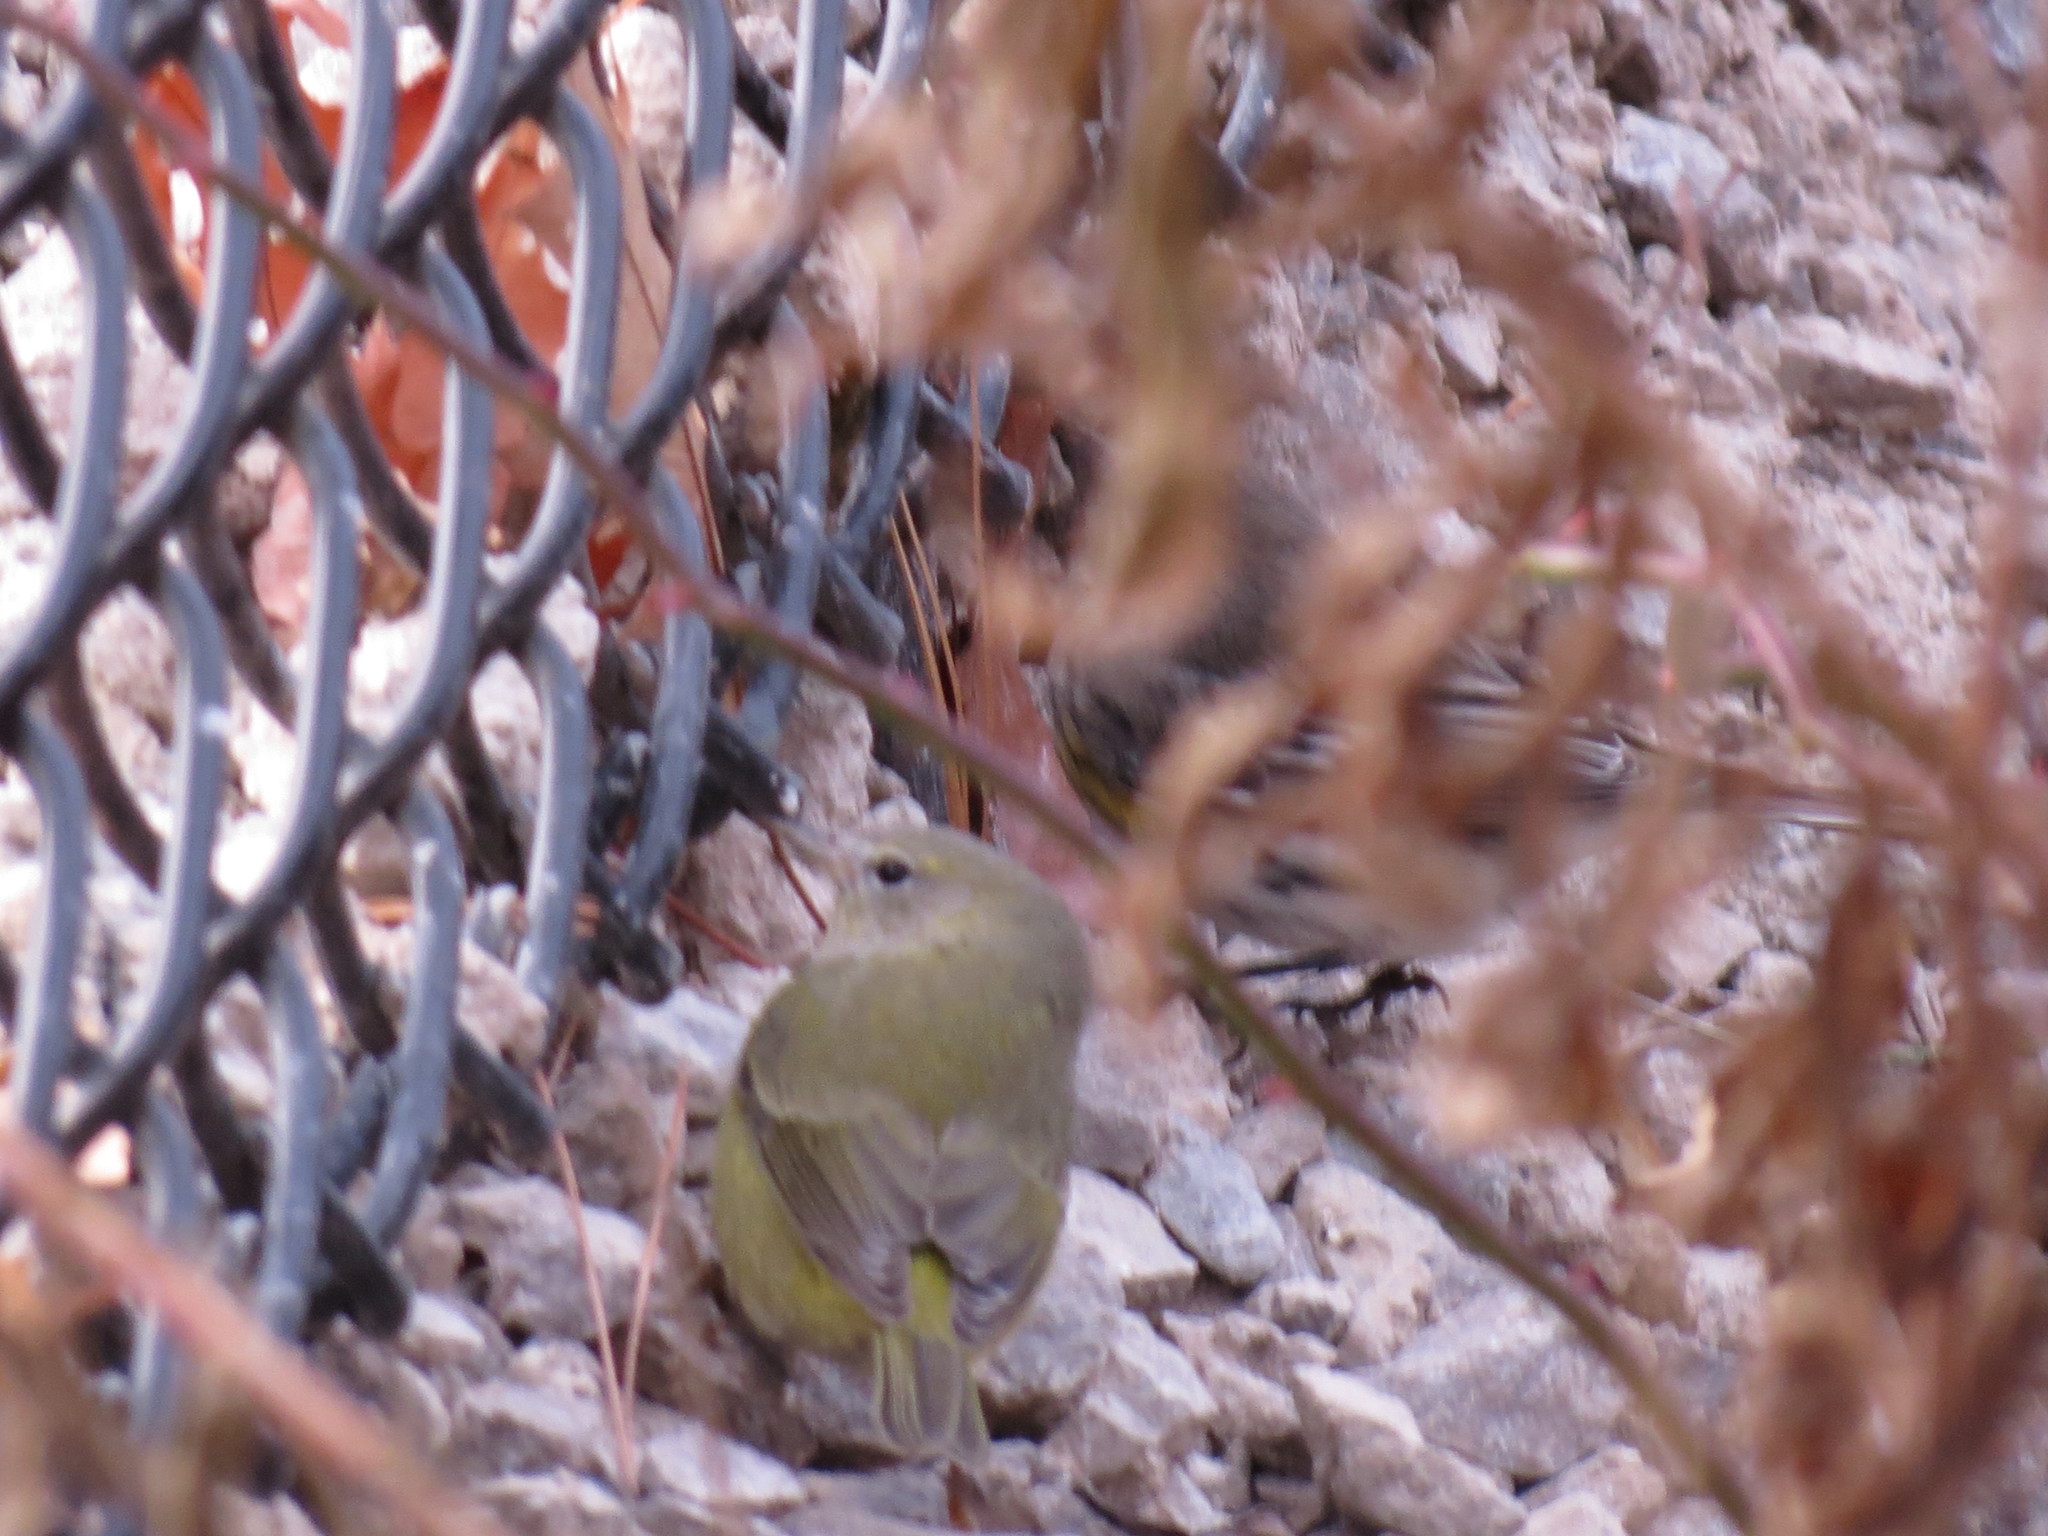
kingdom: Animalia
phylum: Chordata
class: Aves
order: Passeriformes
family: Parulidae
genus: Leiothlypis
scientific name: Leiothlypis celata
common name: Orange-crowned warbler
